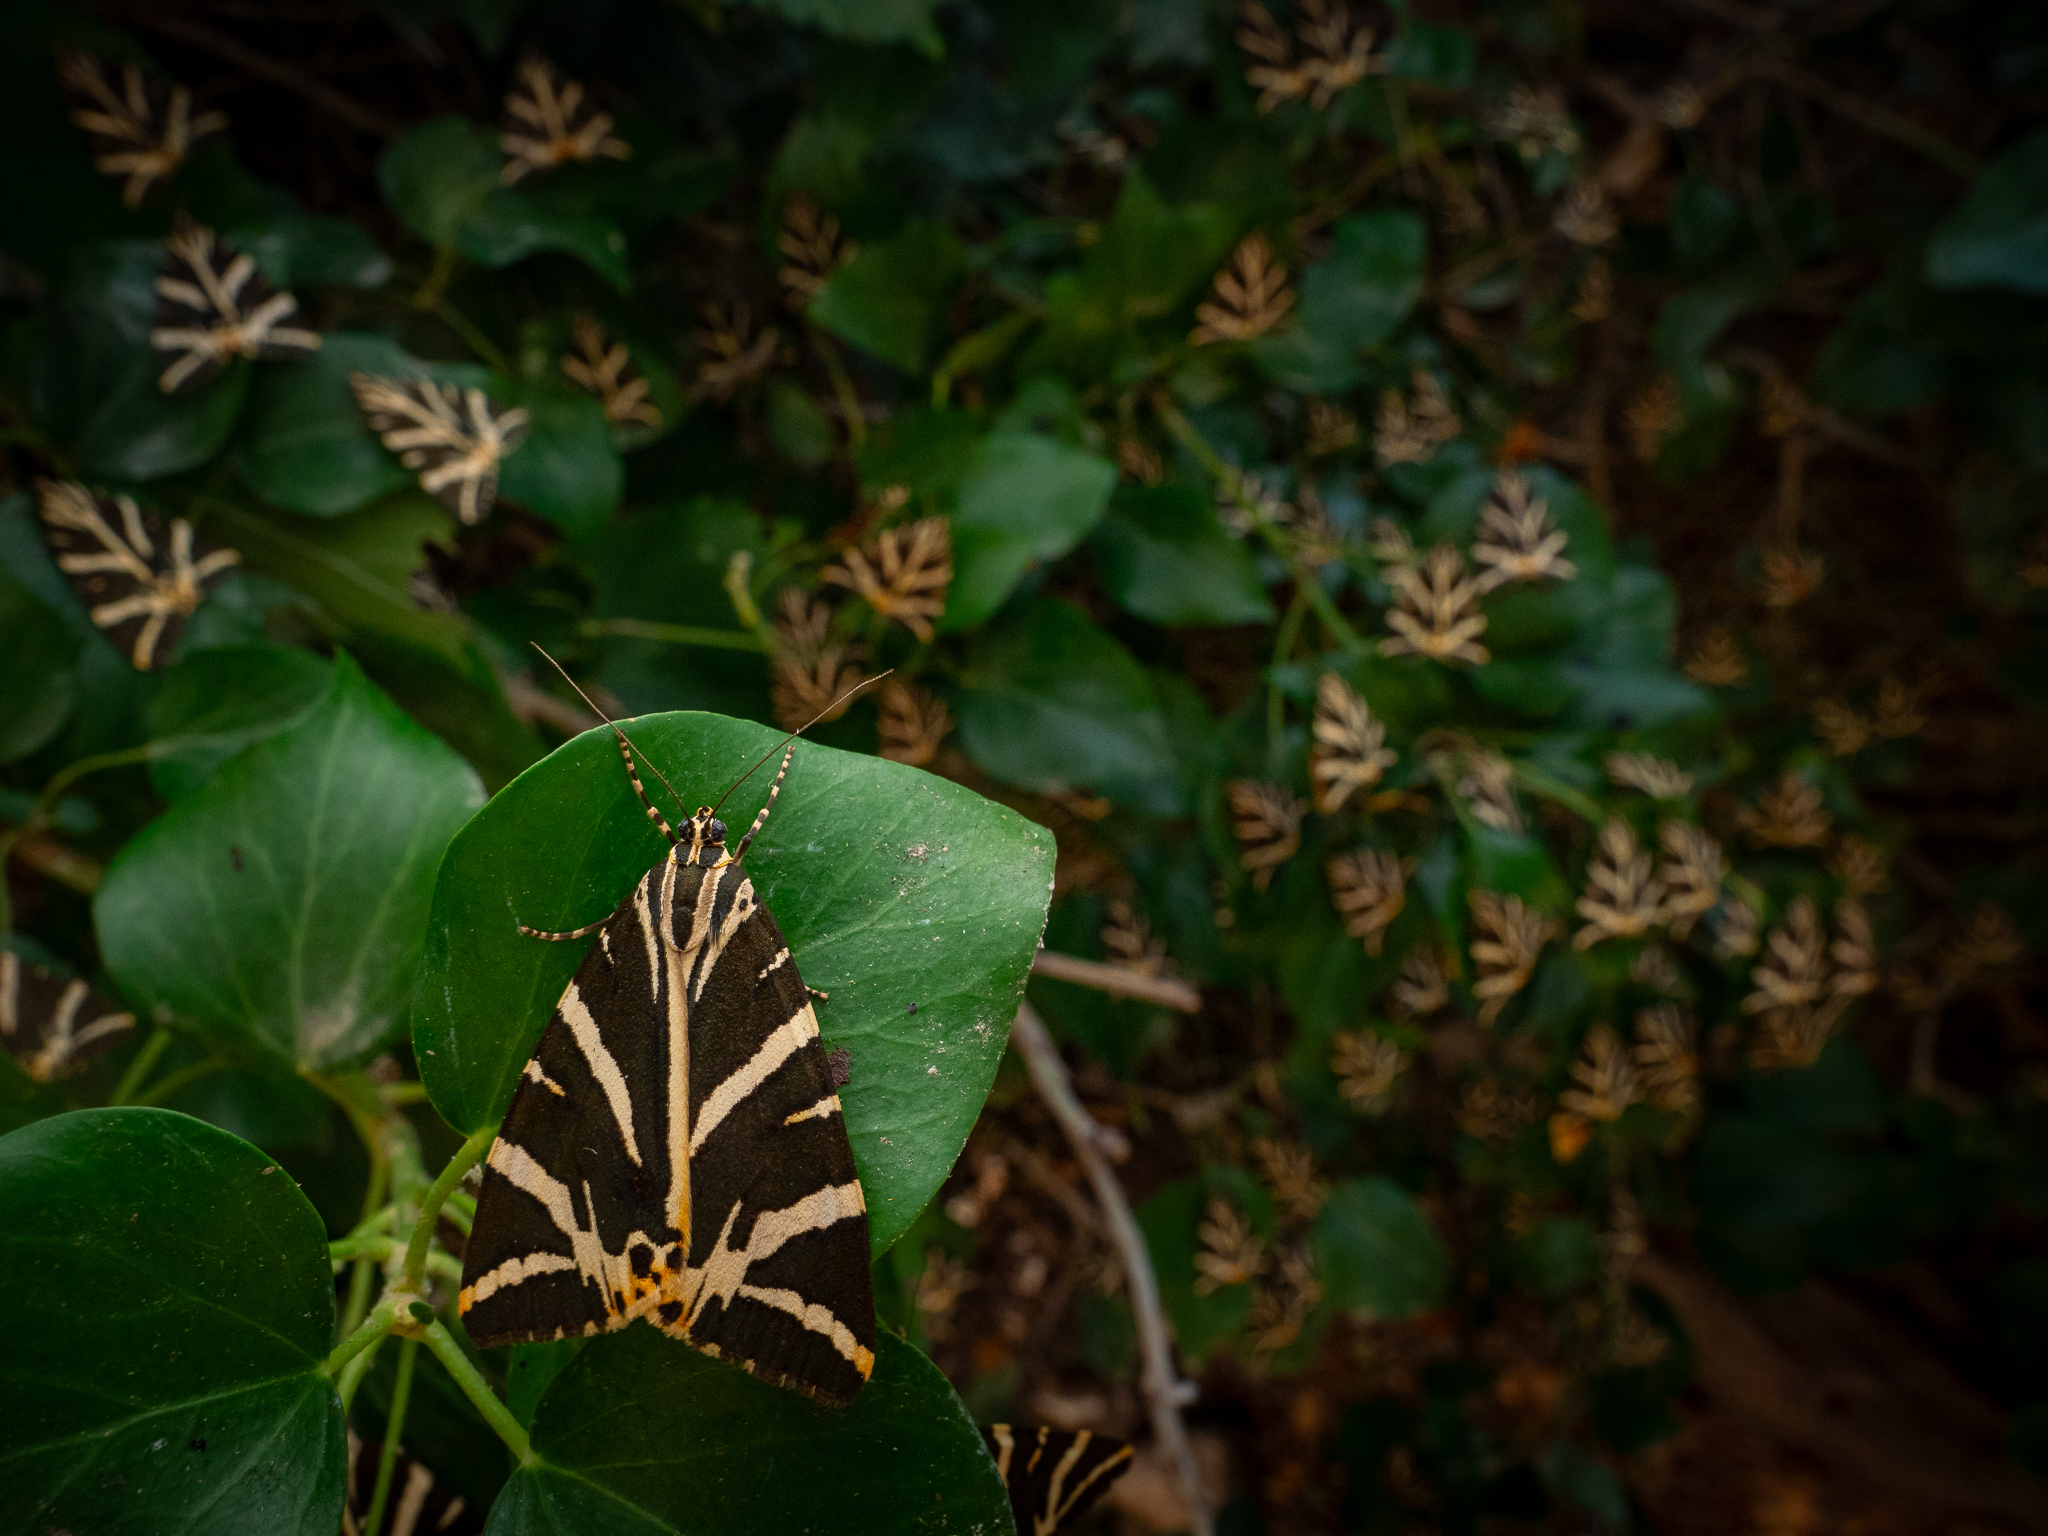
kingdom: Animalia
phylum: Arthropoda
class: Insecta
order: Lepidoptera
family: Erebidae
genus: Euplagia
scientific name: Euplagia quadripunctaria
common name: Jersey tiger
